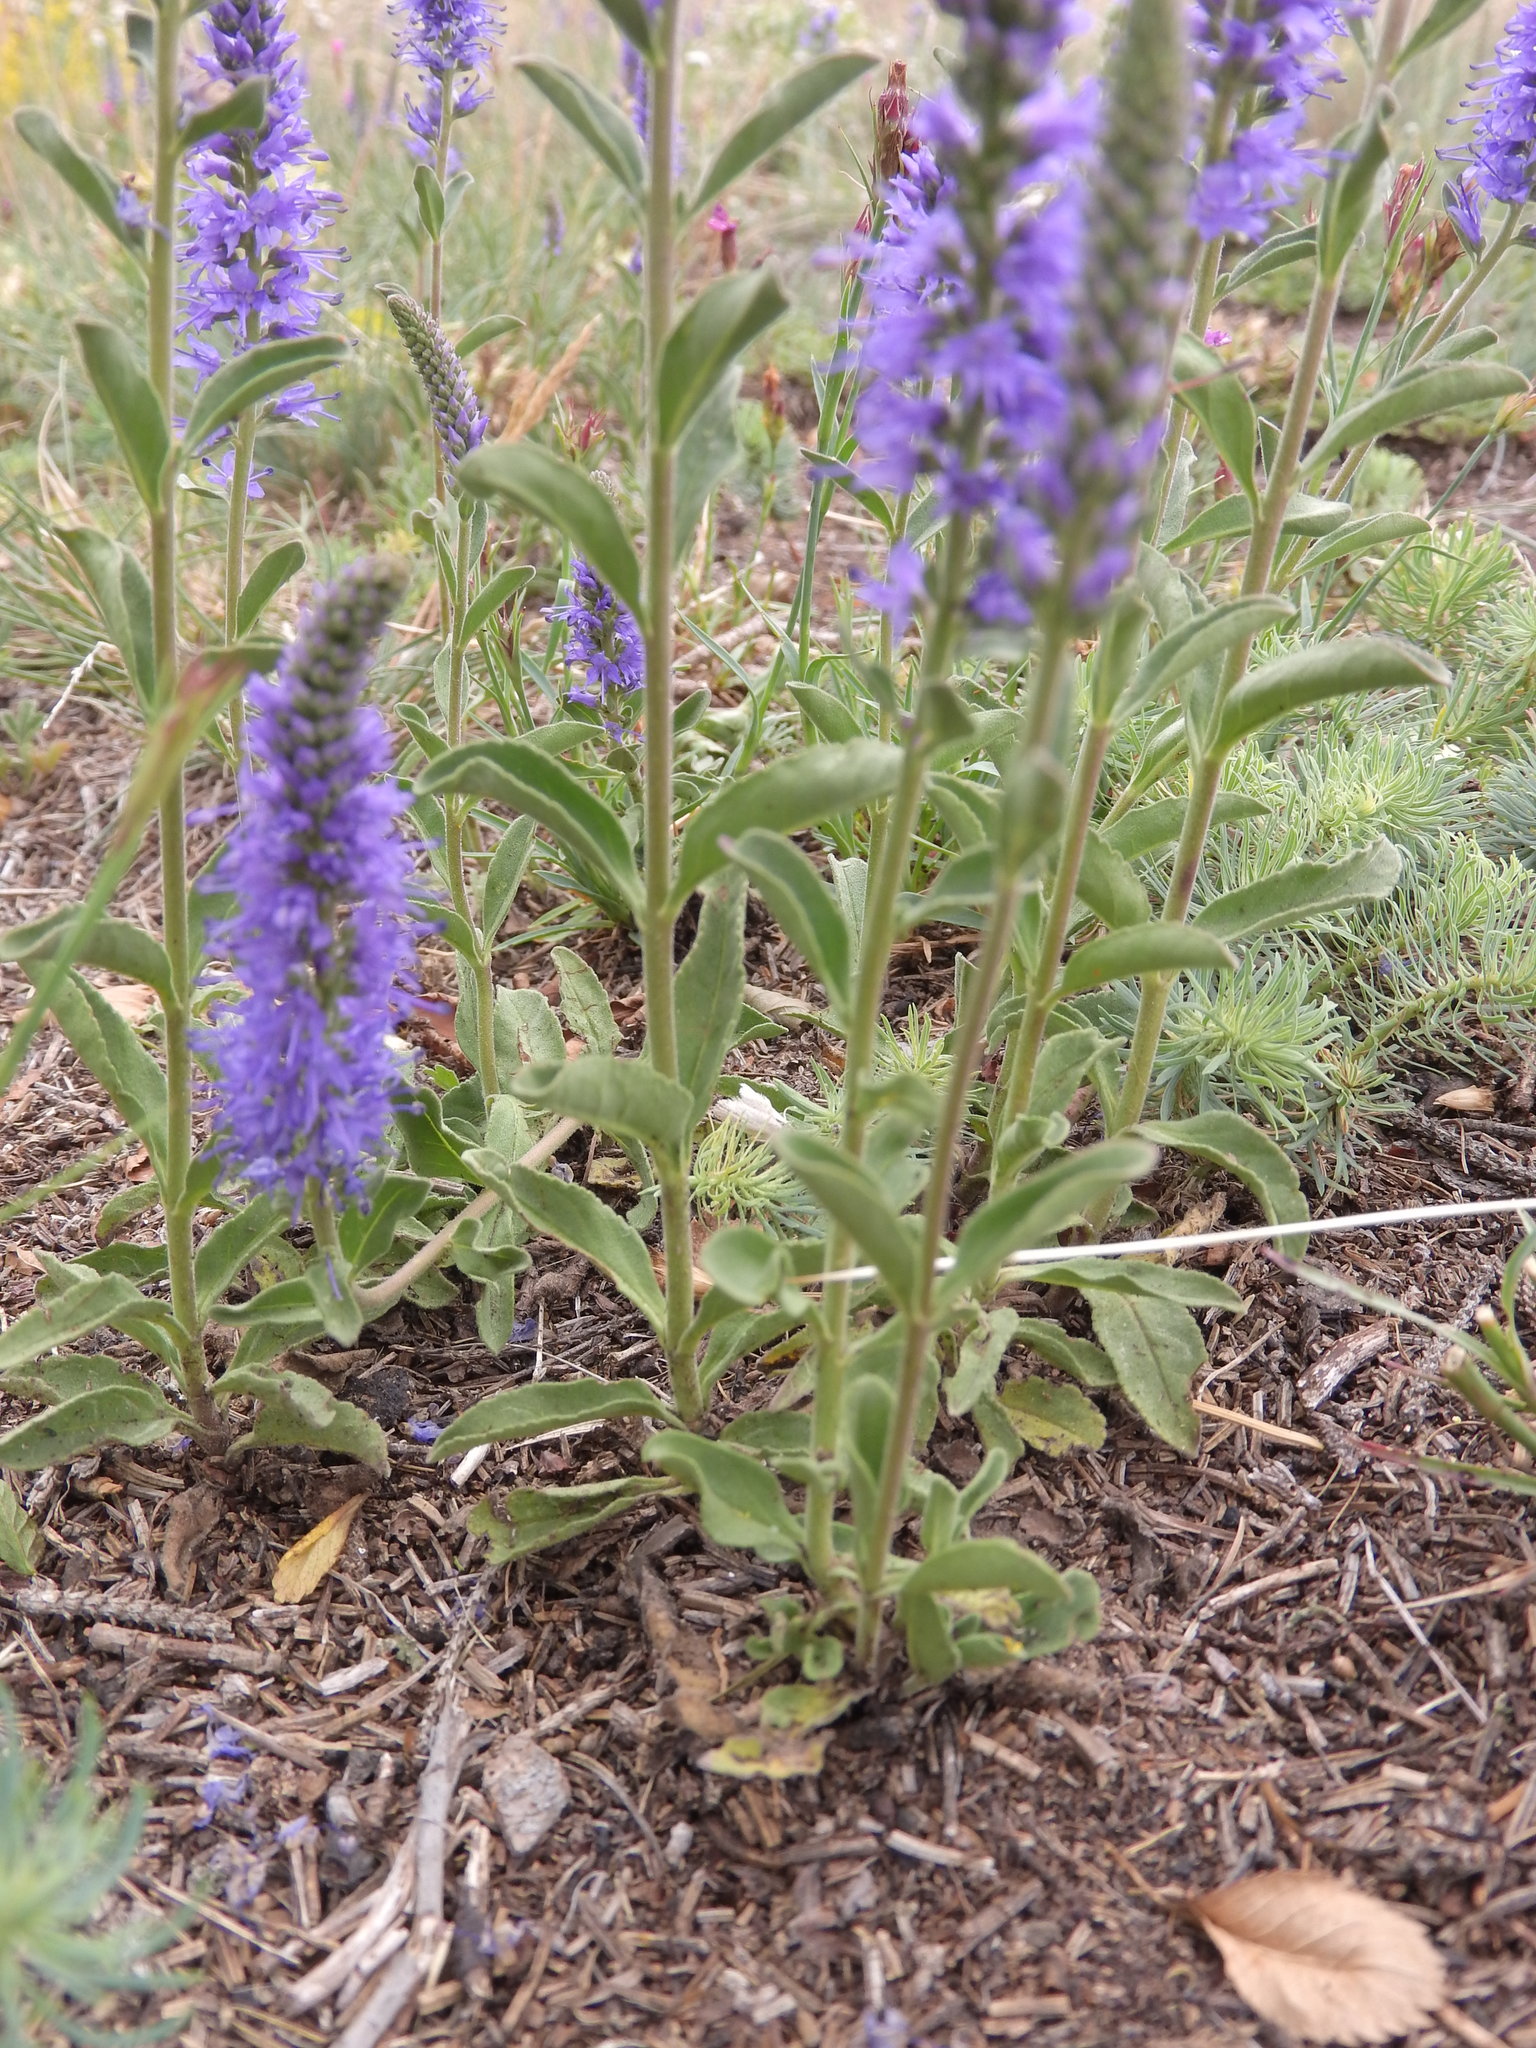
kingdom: Plantae
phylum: Tracheophyta
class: Magnoliopsida
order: Lamiales
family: Plantaginaceae
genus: Veronica
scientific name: Veronica spicata
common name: Spiked speedwell
